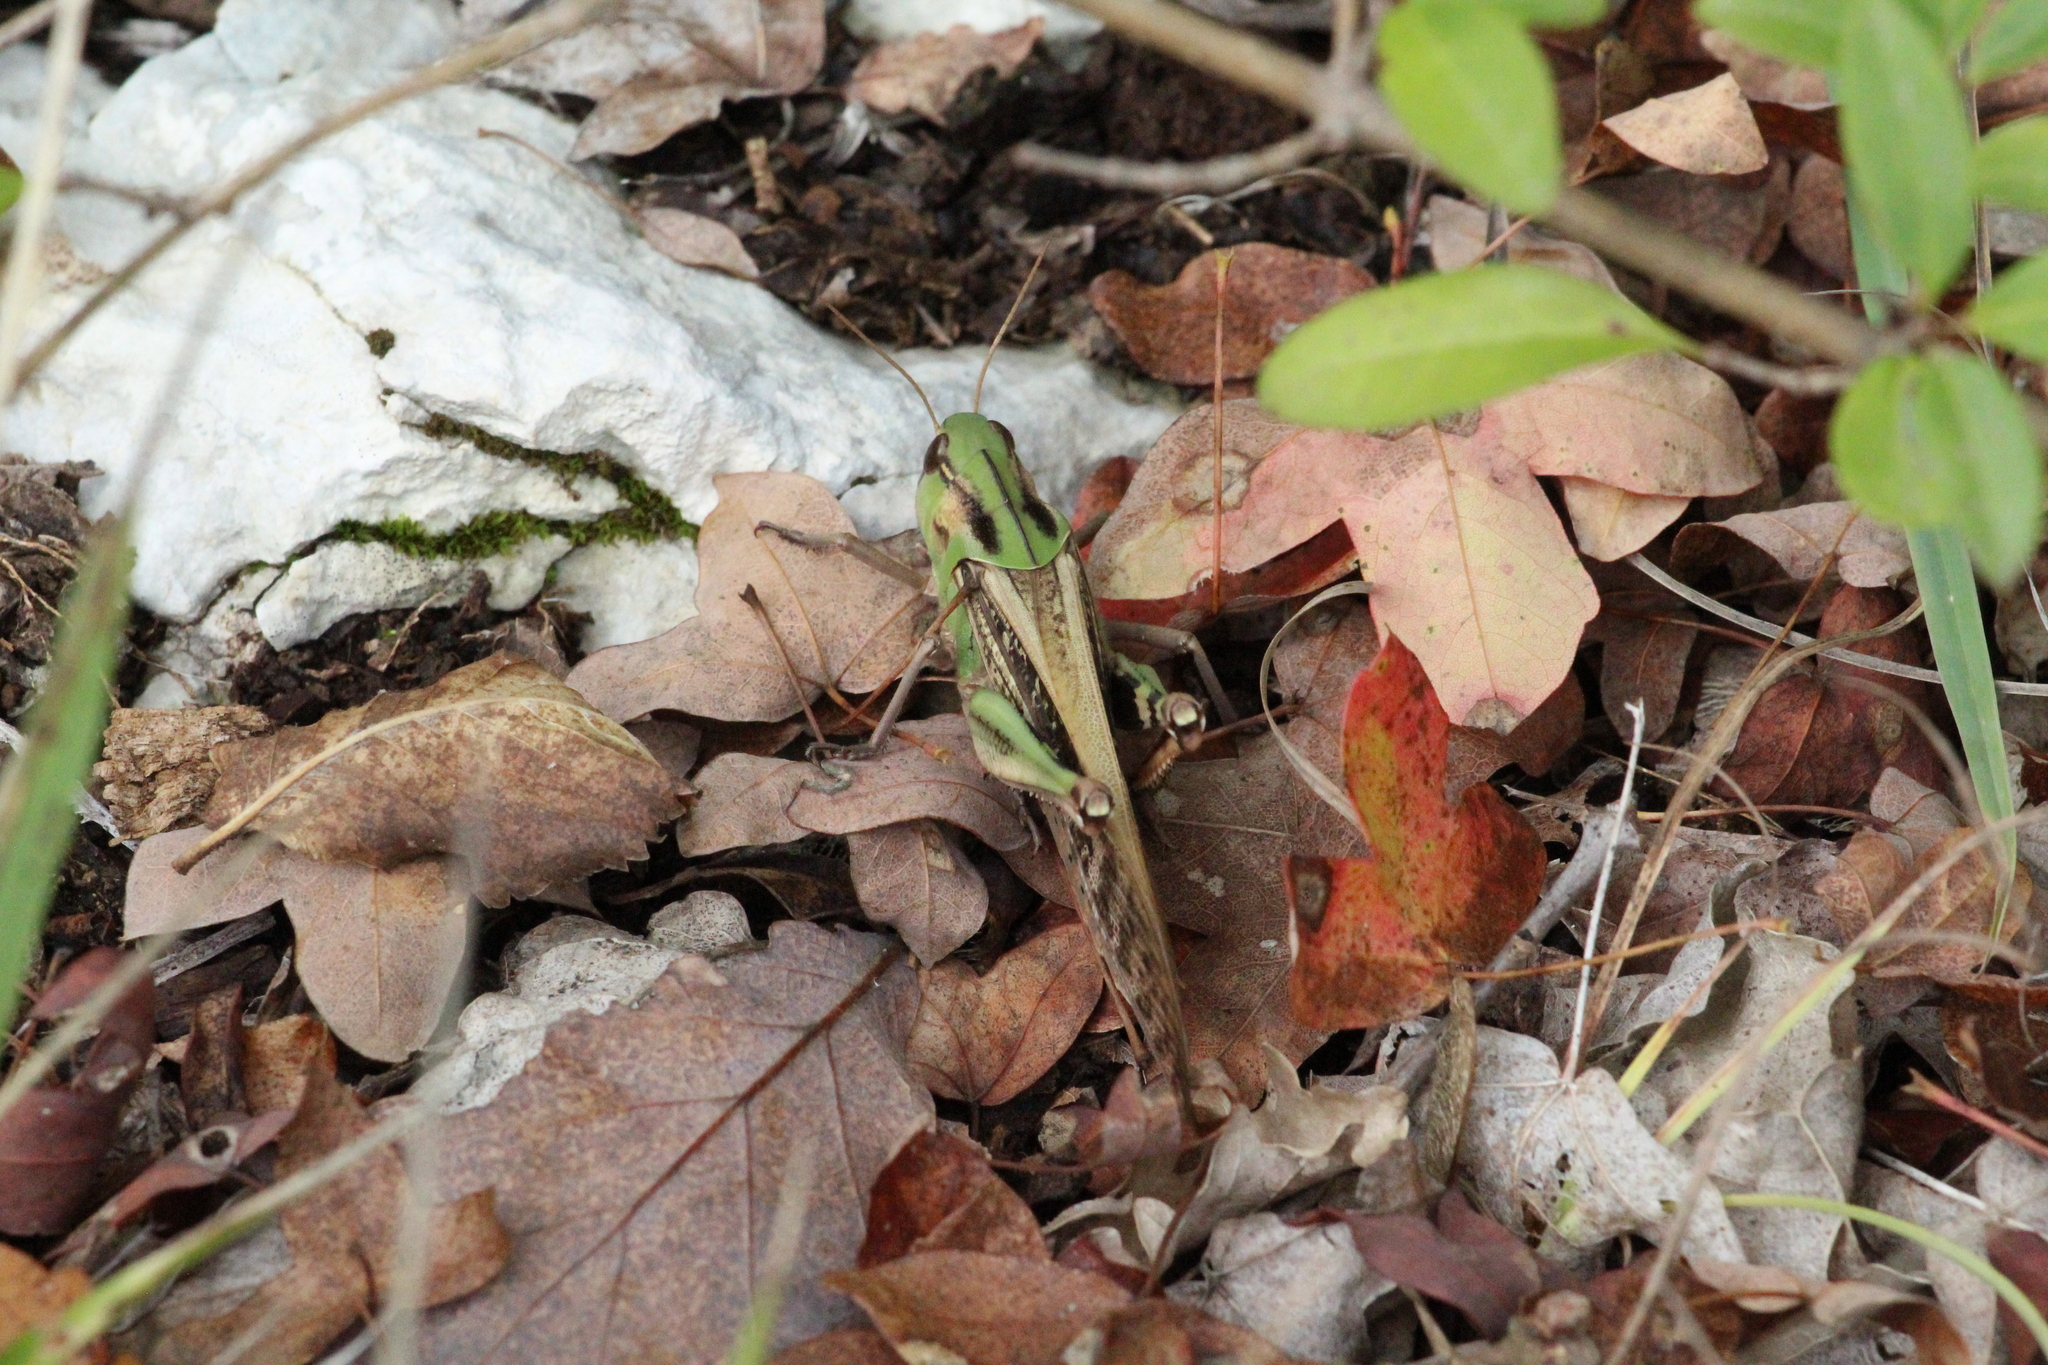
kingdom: Animalia
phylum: Arthropoda
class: Insecta
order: Orthoptera
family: Acrididae
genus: Locusta
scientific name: Locusta migratoria
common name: Migratory locust
